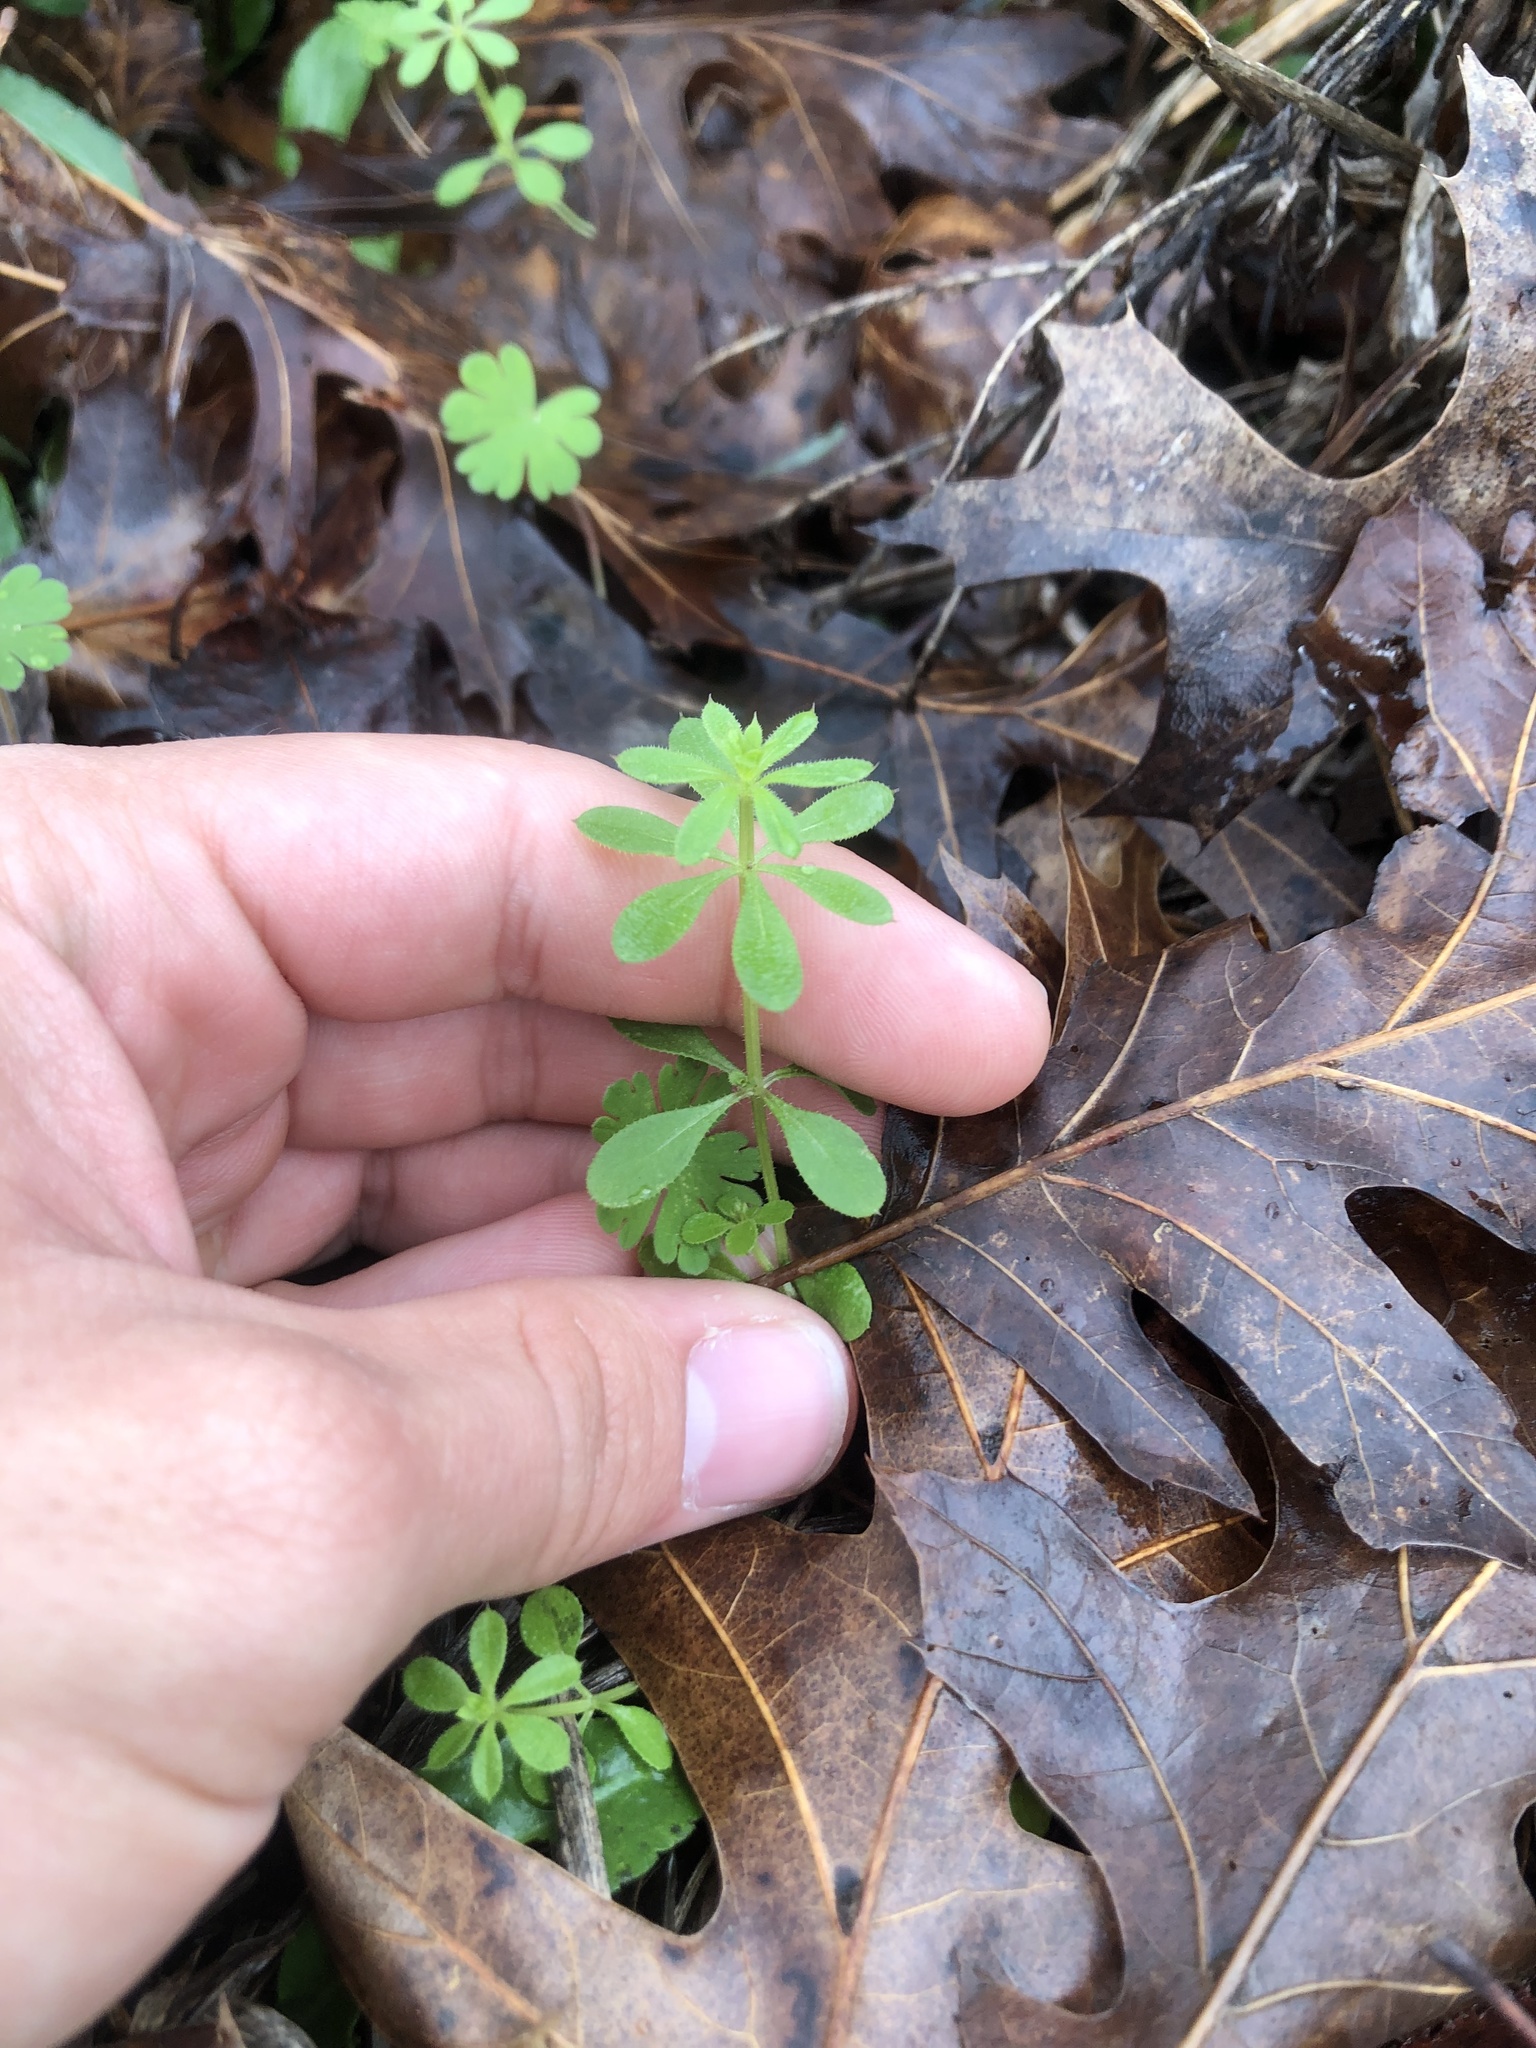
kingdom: Plantae
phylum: Tracheophyta
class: Magnoliopsida
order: Gentianales
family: Rubiaceae
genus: Galium
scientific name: Galium aparine
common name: Cleavers
